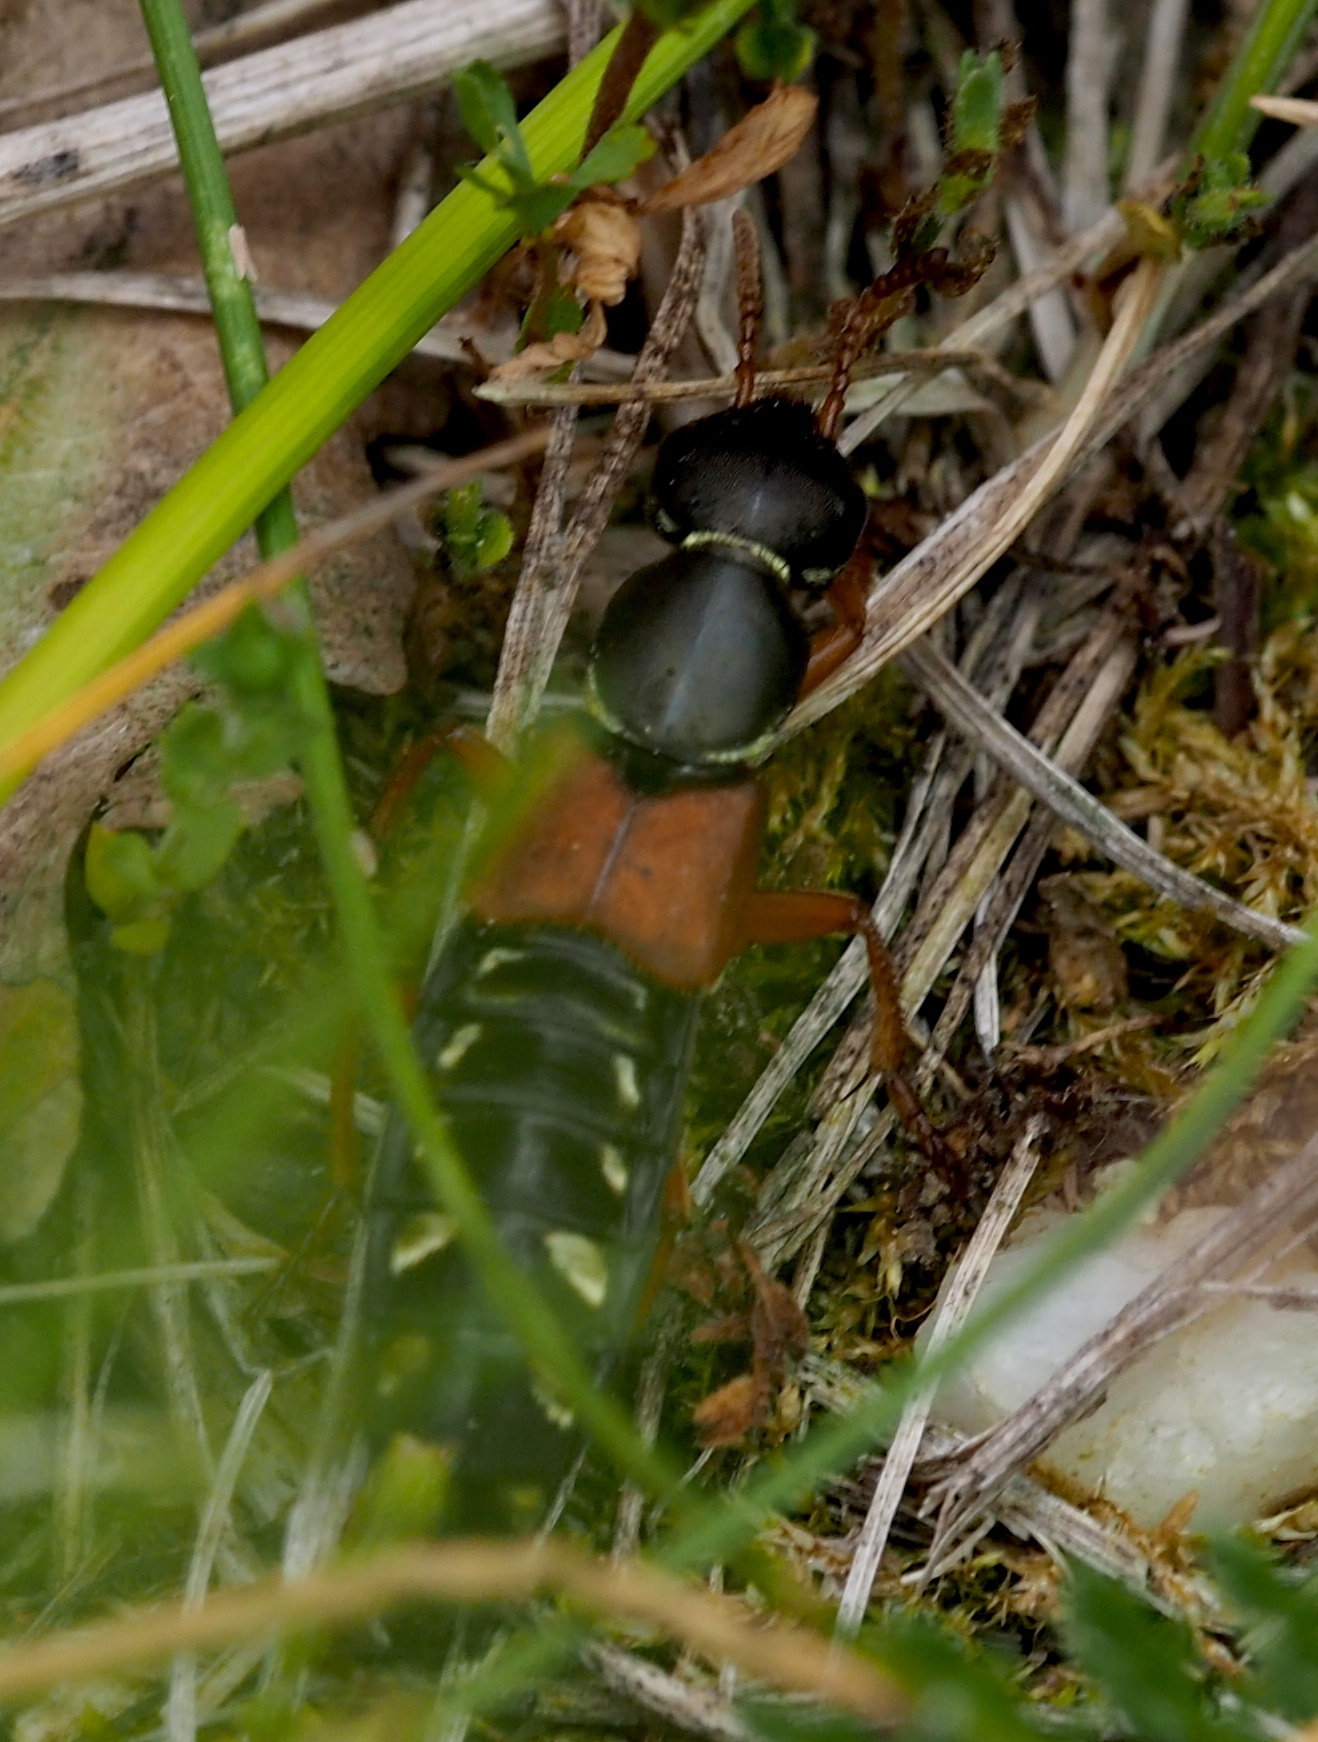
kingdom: Animalia
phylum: Arthropoda
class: Insecta
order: Coleoptera
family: Staphylinidae
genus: Staphylinus
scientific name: Staphylinus caesareus
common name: Staph beetle
